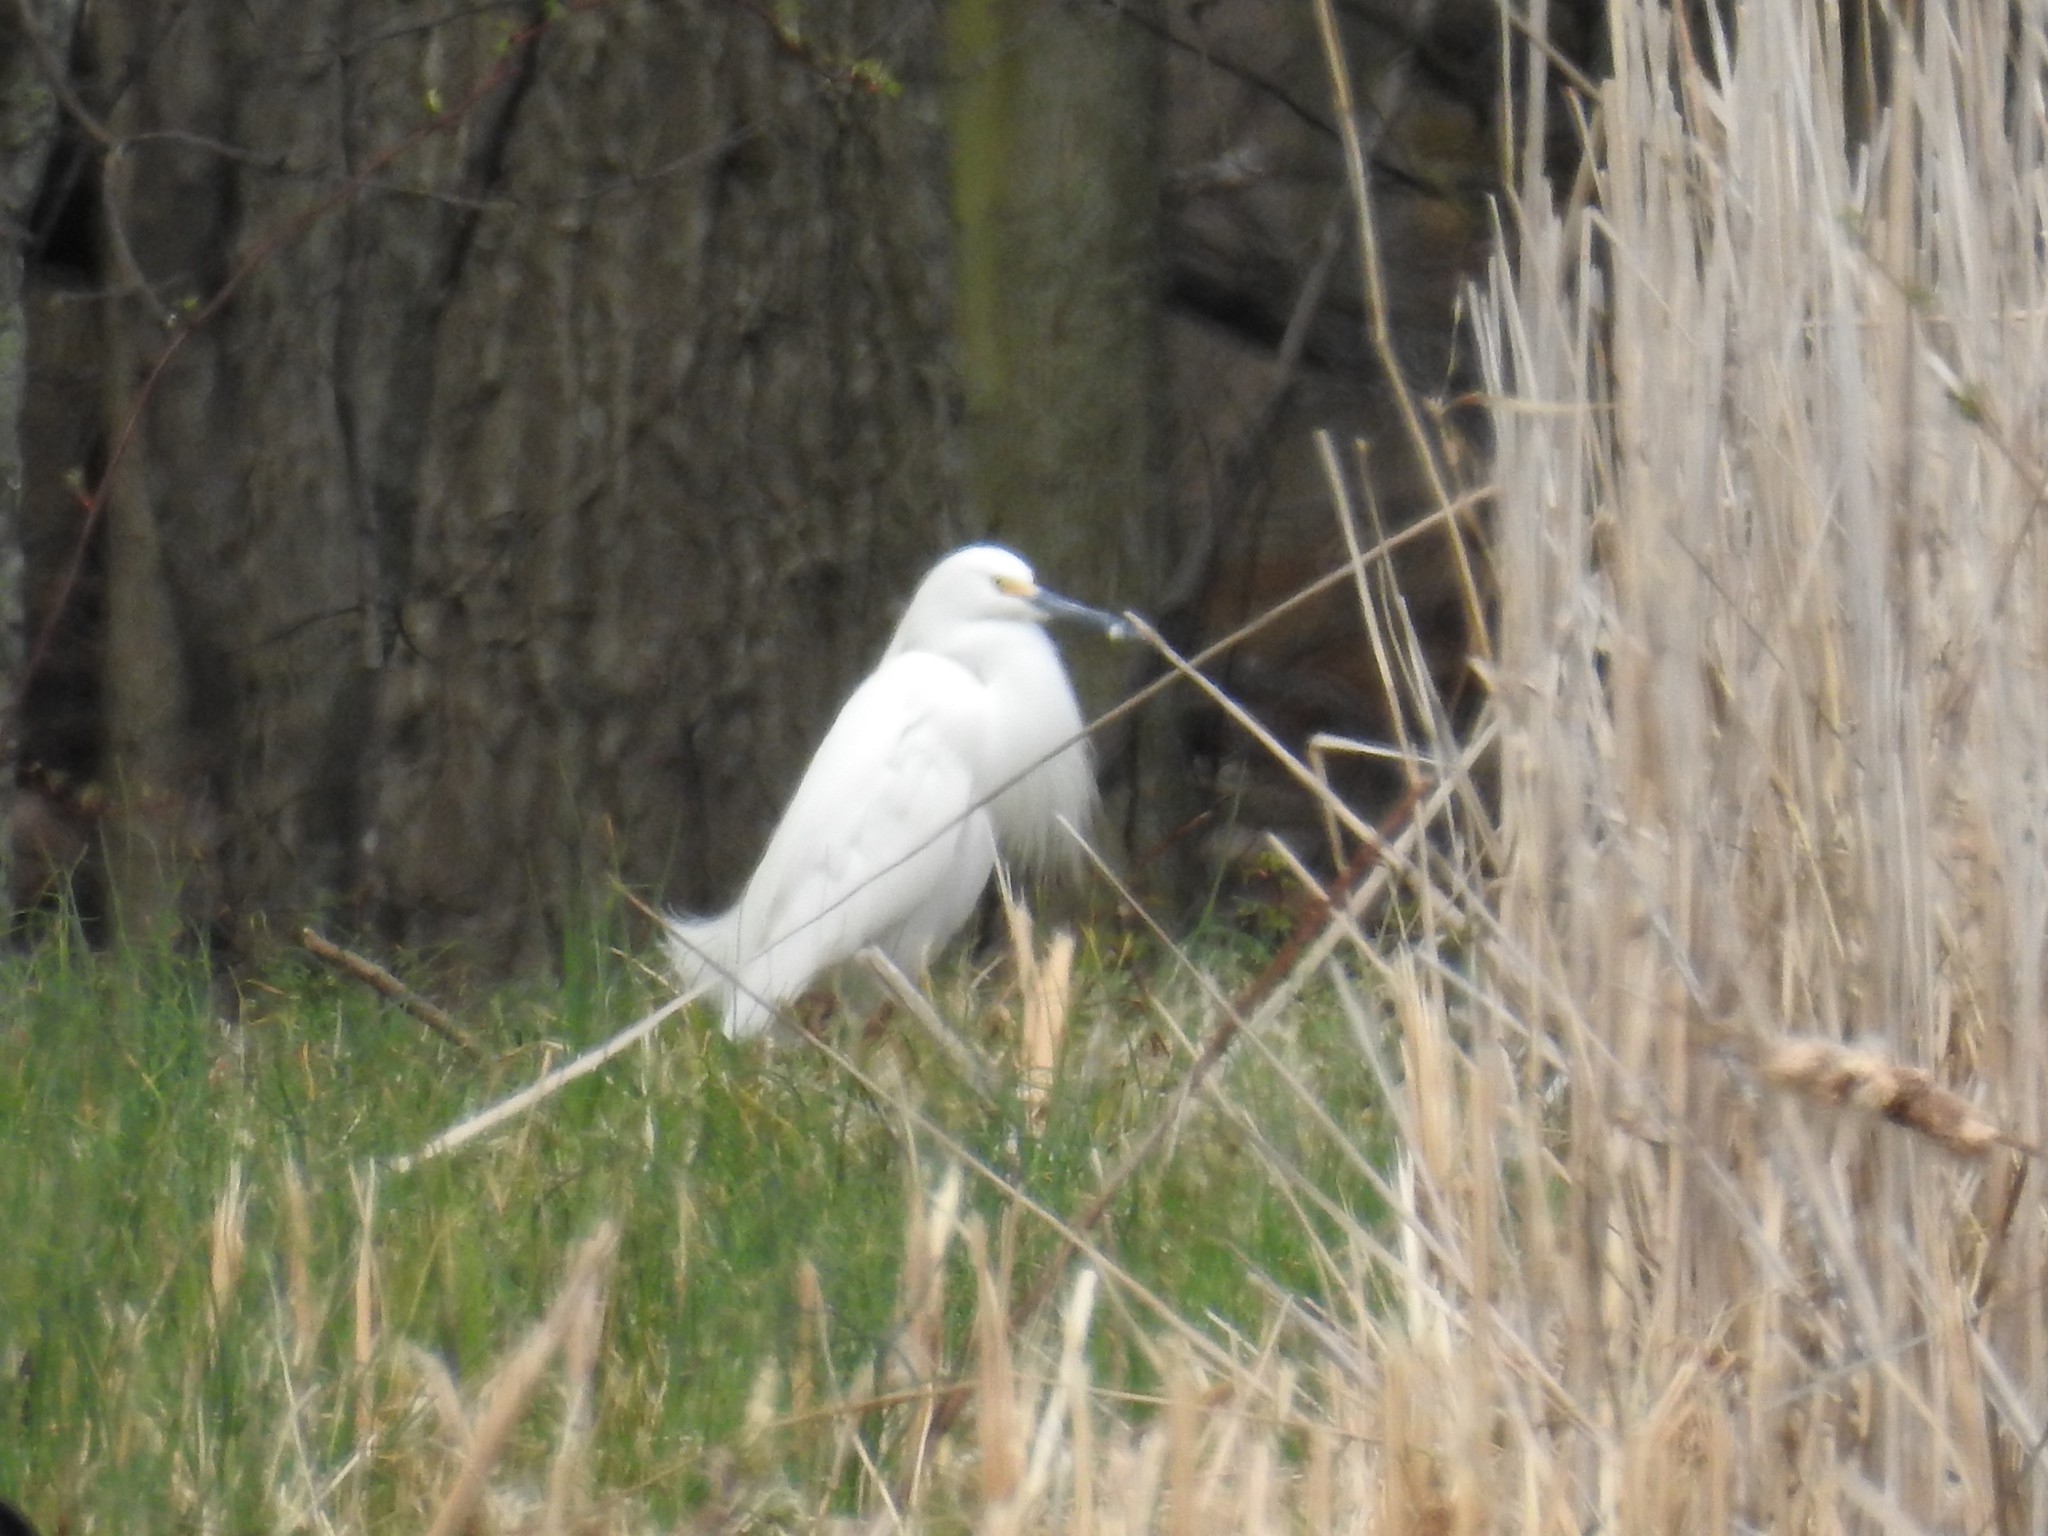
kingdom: Animalia
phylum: Chordata
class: Aves
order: Pelecaniformes
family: Ardeidae
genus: Egretta
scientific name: Egretta thula
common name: Snowy egret
